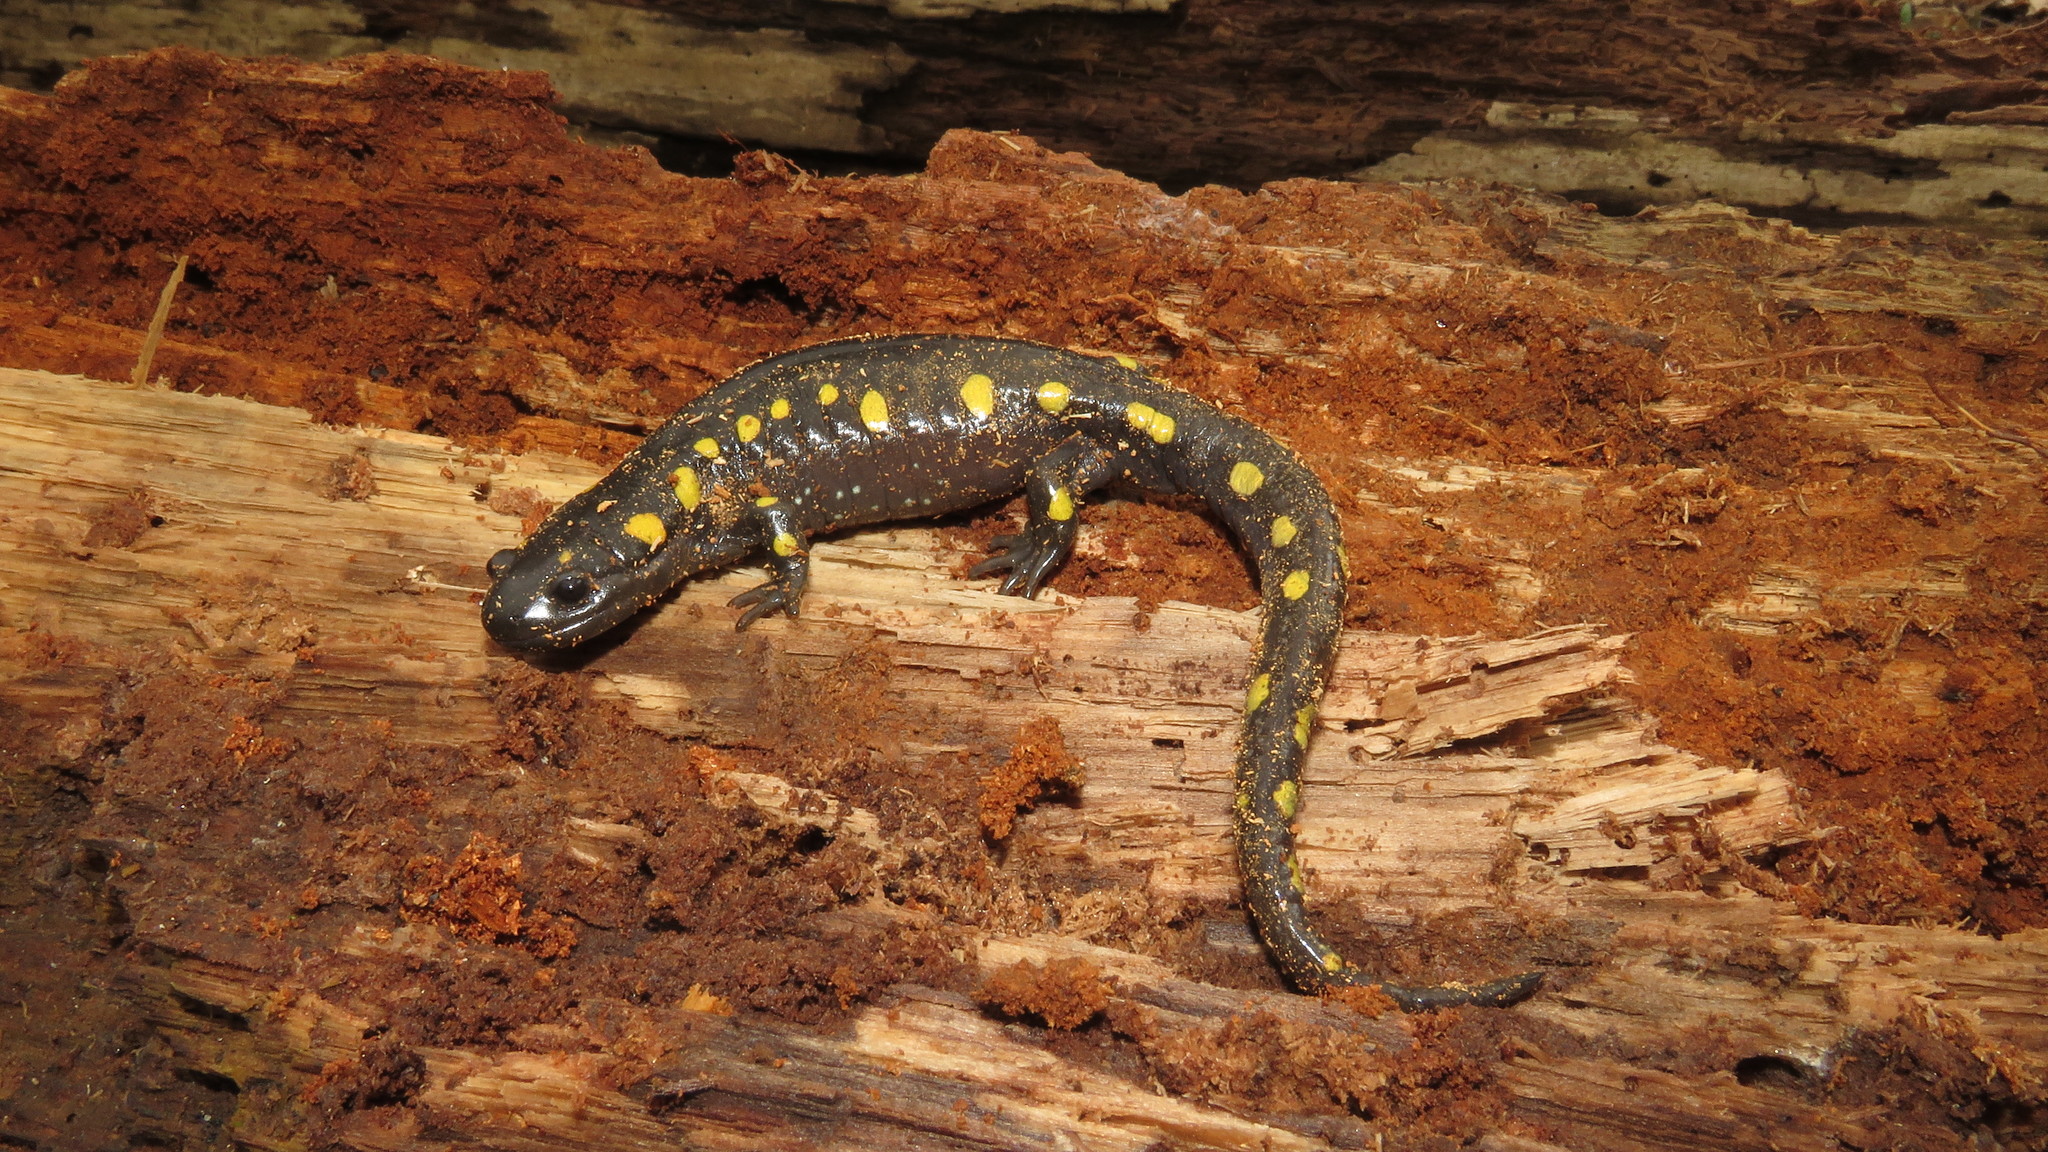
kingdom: Animalia
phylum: Chordata
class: Amphibia
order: Caudata
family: Ambystomatidae
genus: Ambystoma
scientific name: Ambystoma maculatum
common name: Spotted salamander
